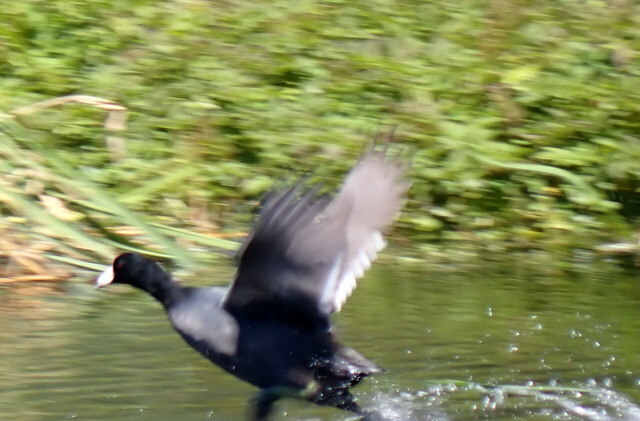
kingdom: Animalia
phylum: Chordata
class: Aves
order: Gruiformes
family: Rallidae
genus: Fulica
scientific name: Fulica americana
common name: American coot
